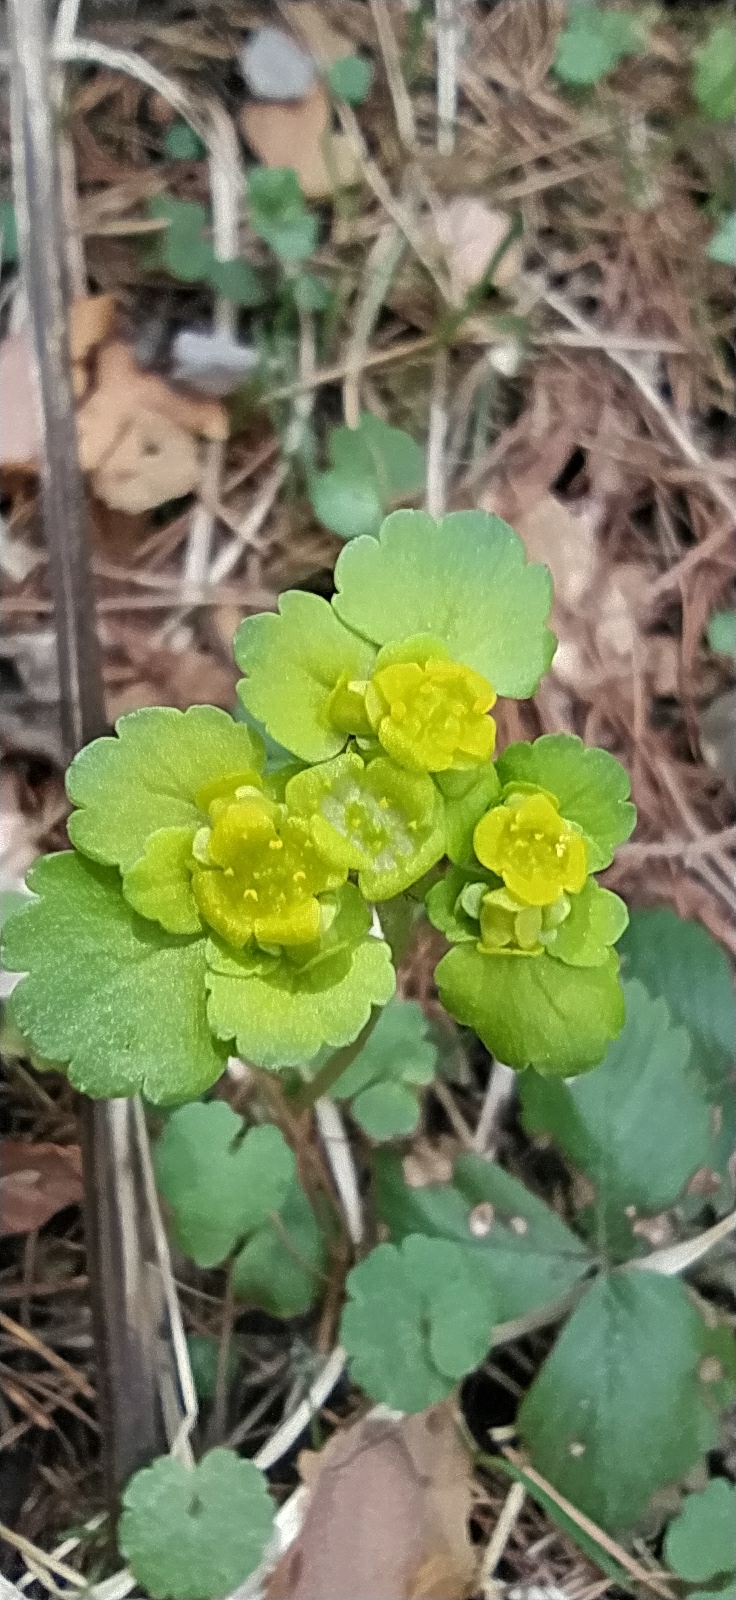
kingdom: Plantae
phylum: Tracheophyta
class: Magnoliopsida
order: Saxifragales
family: Saxifragaceae
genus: Chrysosplenium
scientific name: Chrysosplenium alternifolium
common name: Alternate-leaved golden-saxifrage
